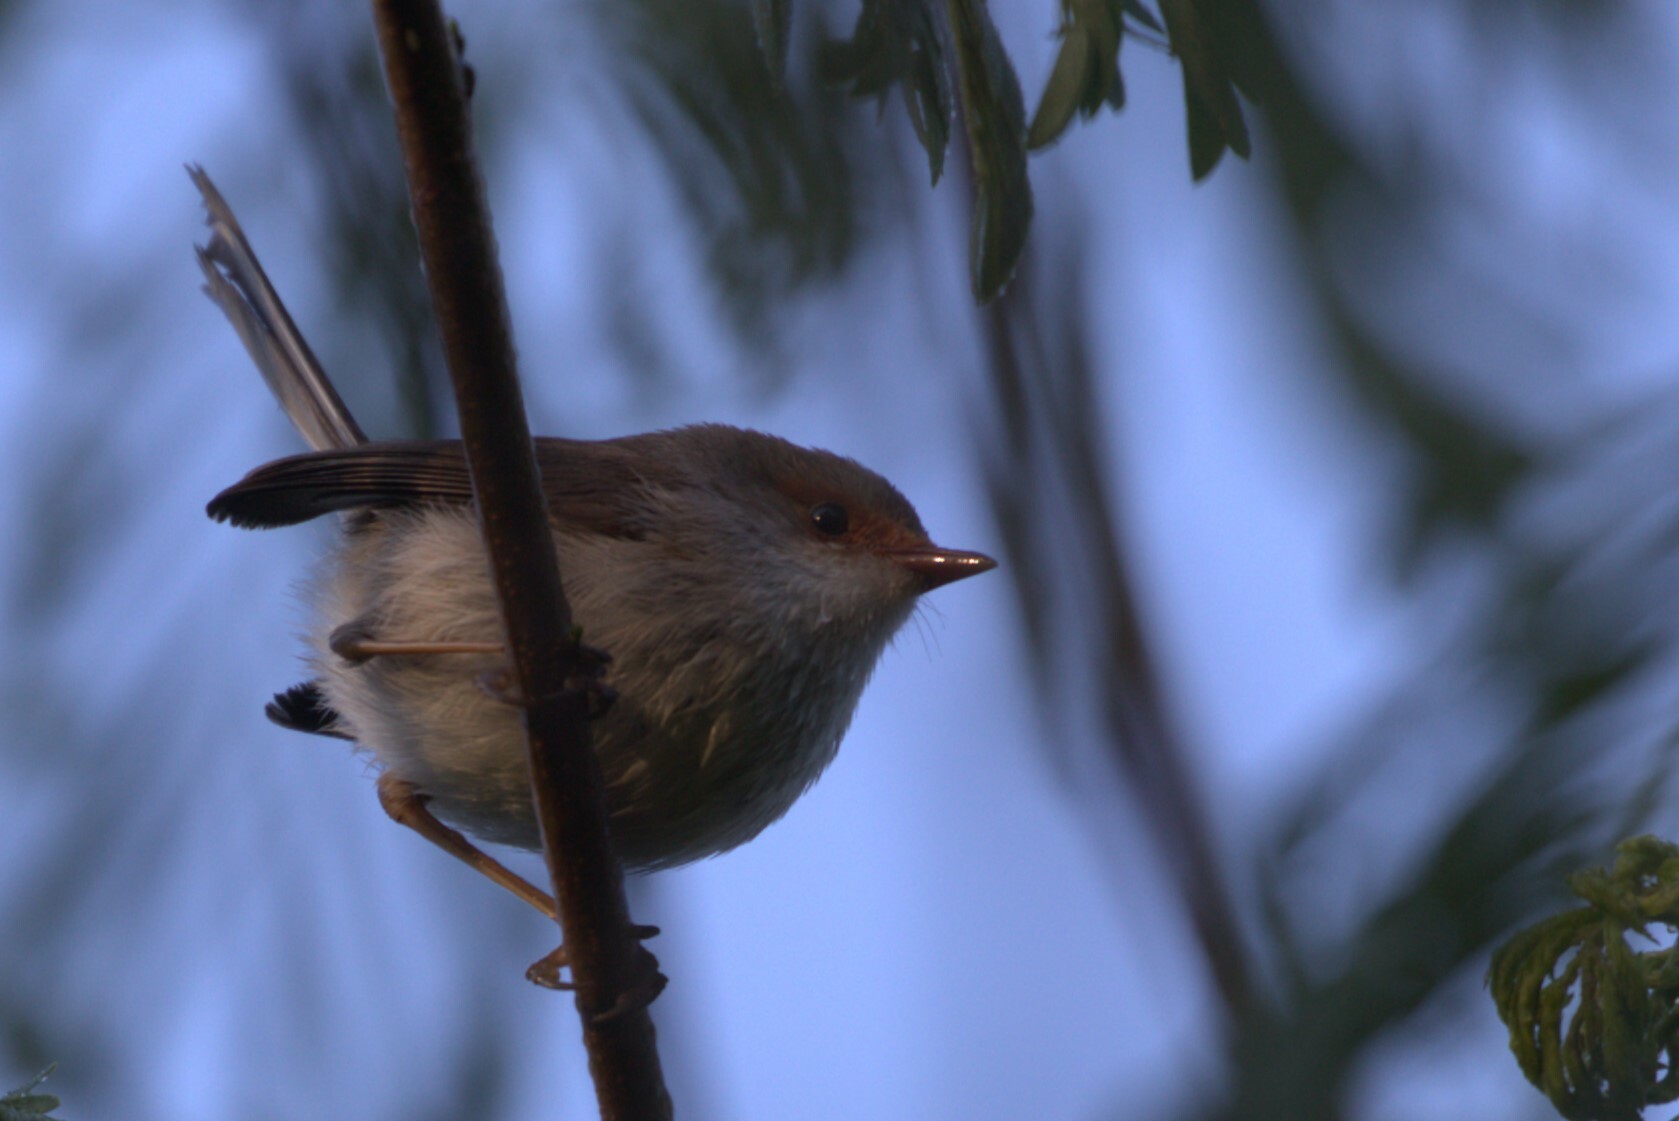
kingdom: Animalia
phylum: Chordata
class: Aves
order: Passeriformes
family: Maluridae
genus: Malurus
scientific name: Malurus cyaneus
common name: Superb fairywren
